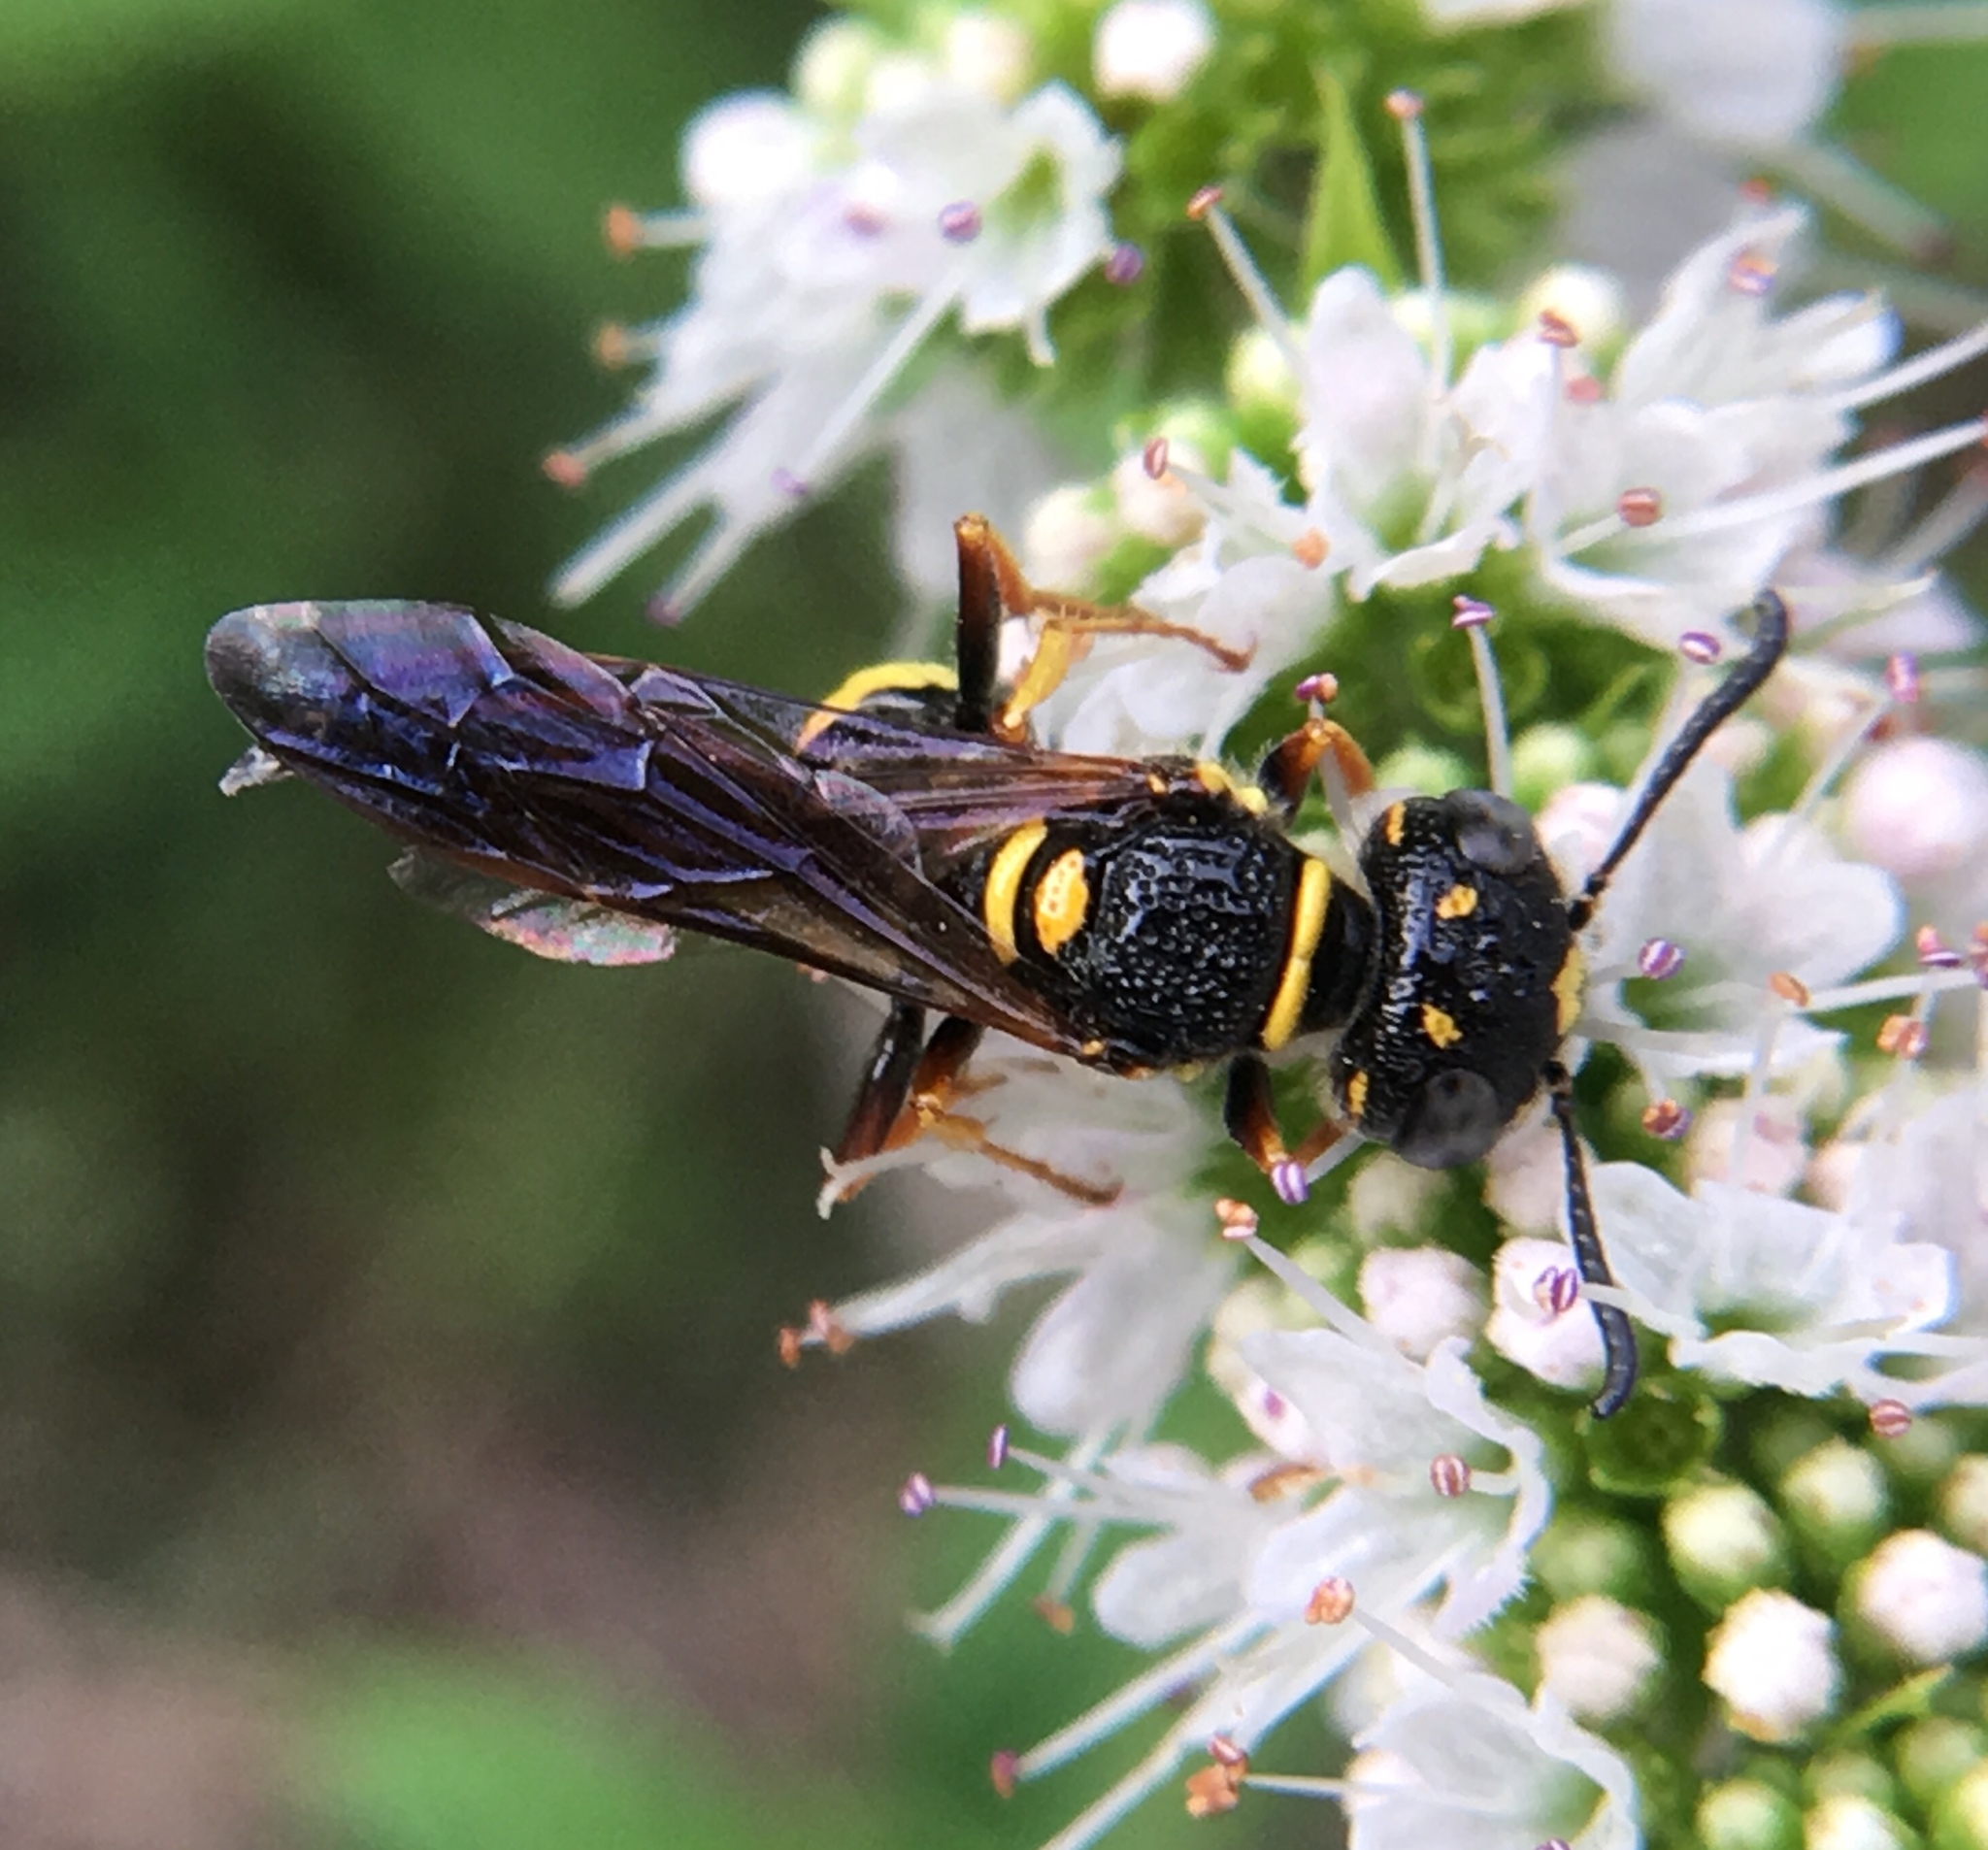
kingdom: Animalia
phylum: Arthropoda
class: Insecta
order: Hymenoptera
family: Crabronidae
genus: Philanthus
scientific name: Philanthus gibbosus
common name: Humped beewolf
